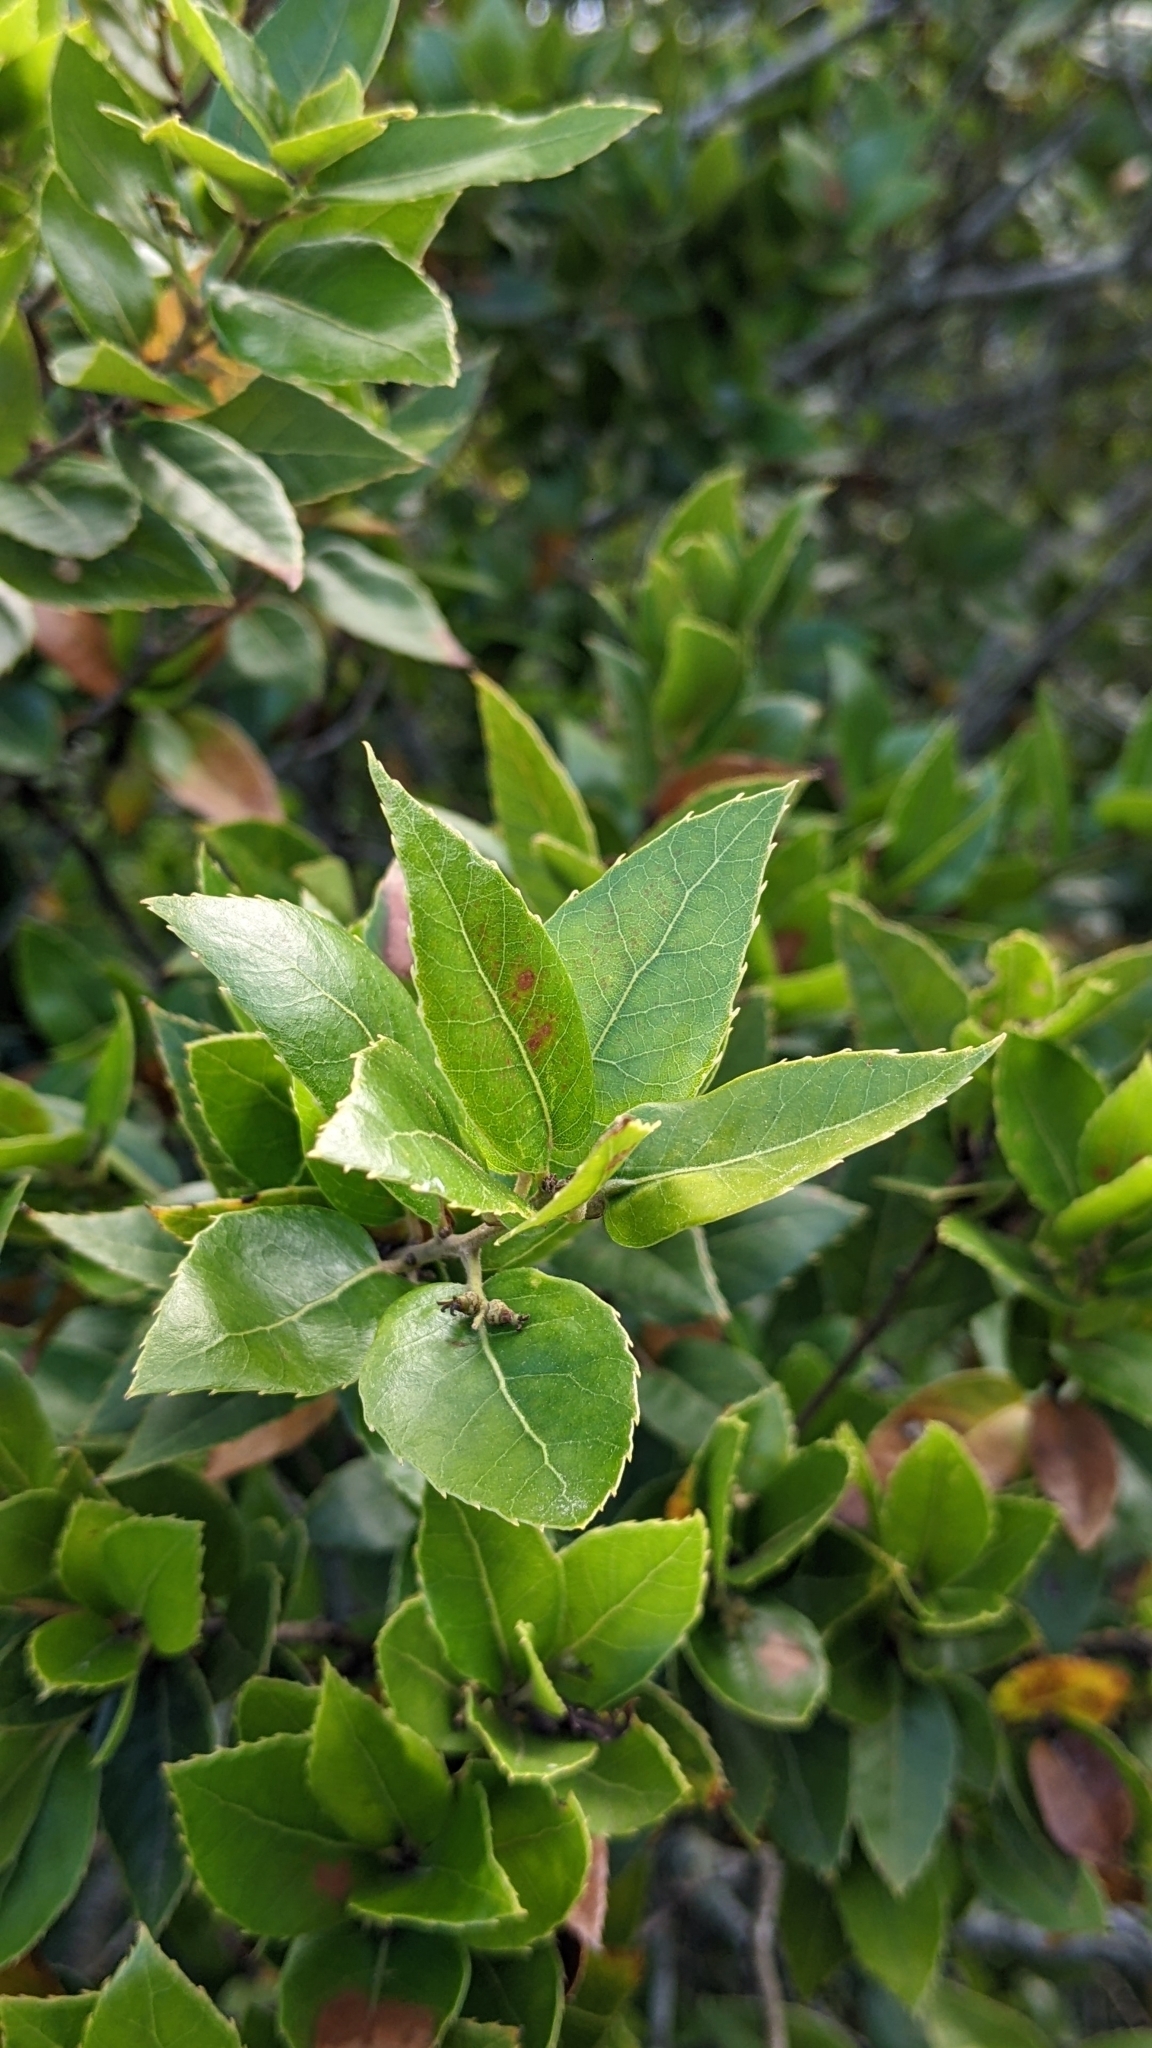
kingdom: Plantae
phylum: Tracheophyta
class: Magnoliopsida
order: Fagales
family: Fagaceae
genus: Quercus
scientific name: Quercus tarokoensis
